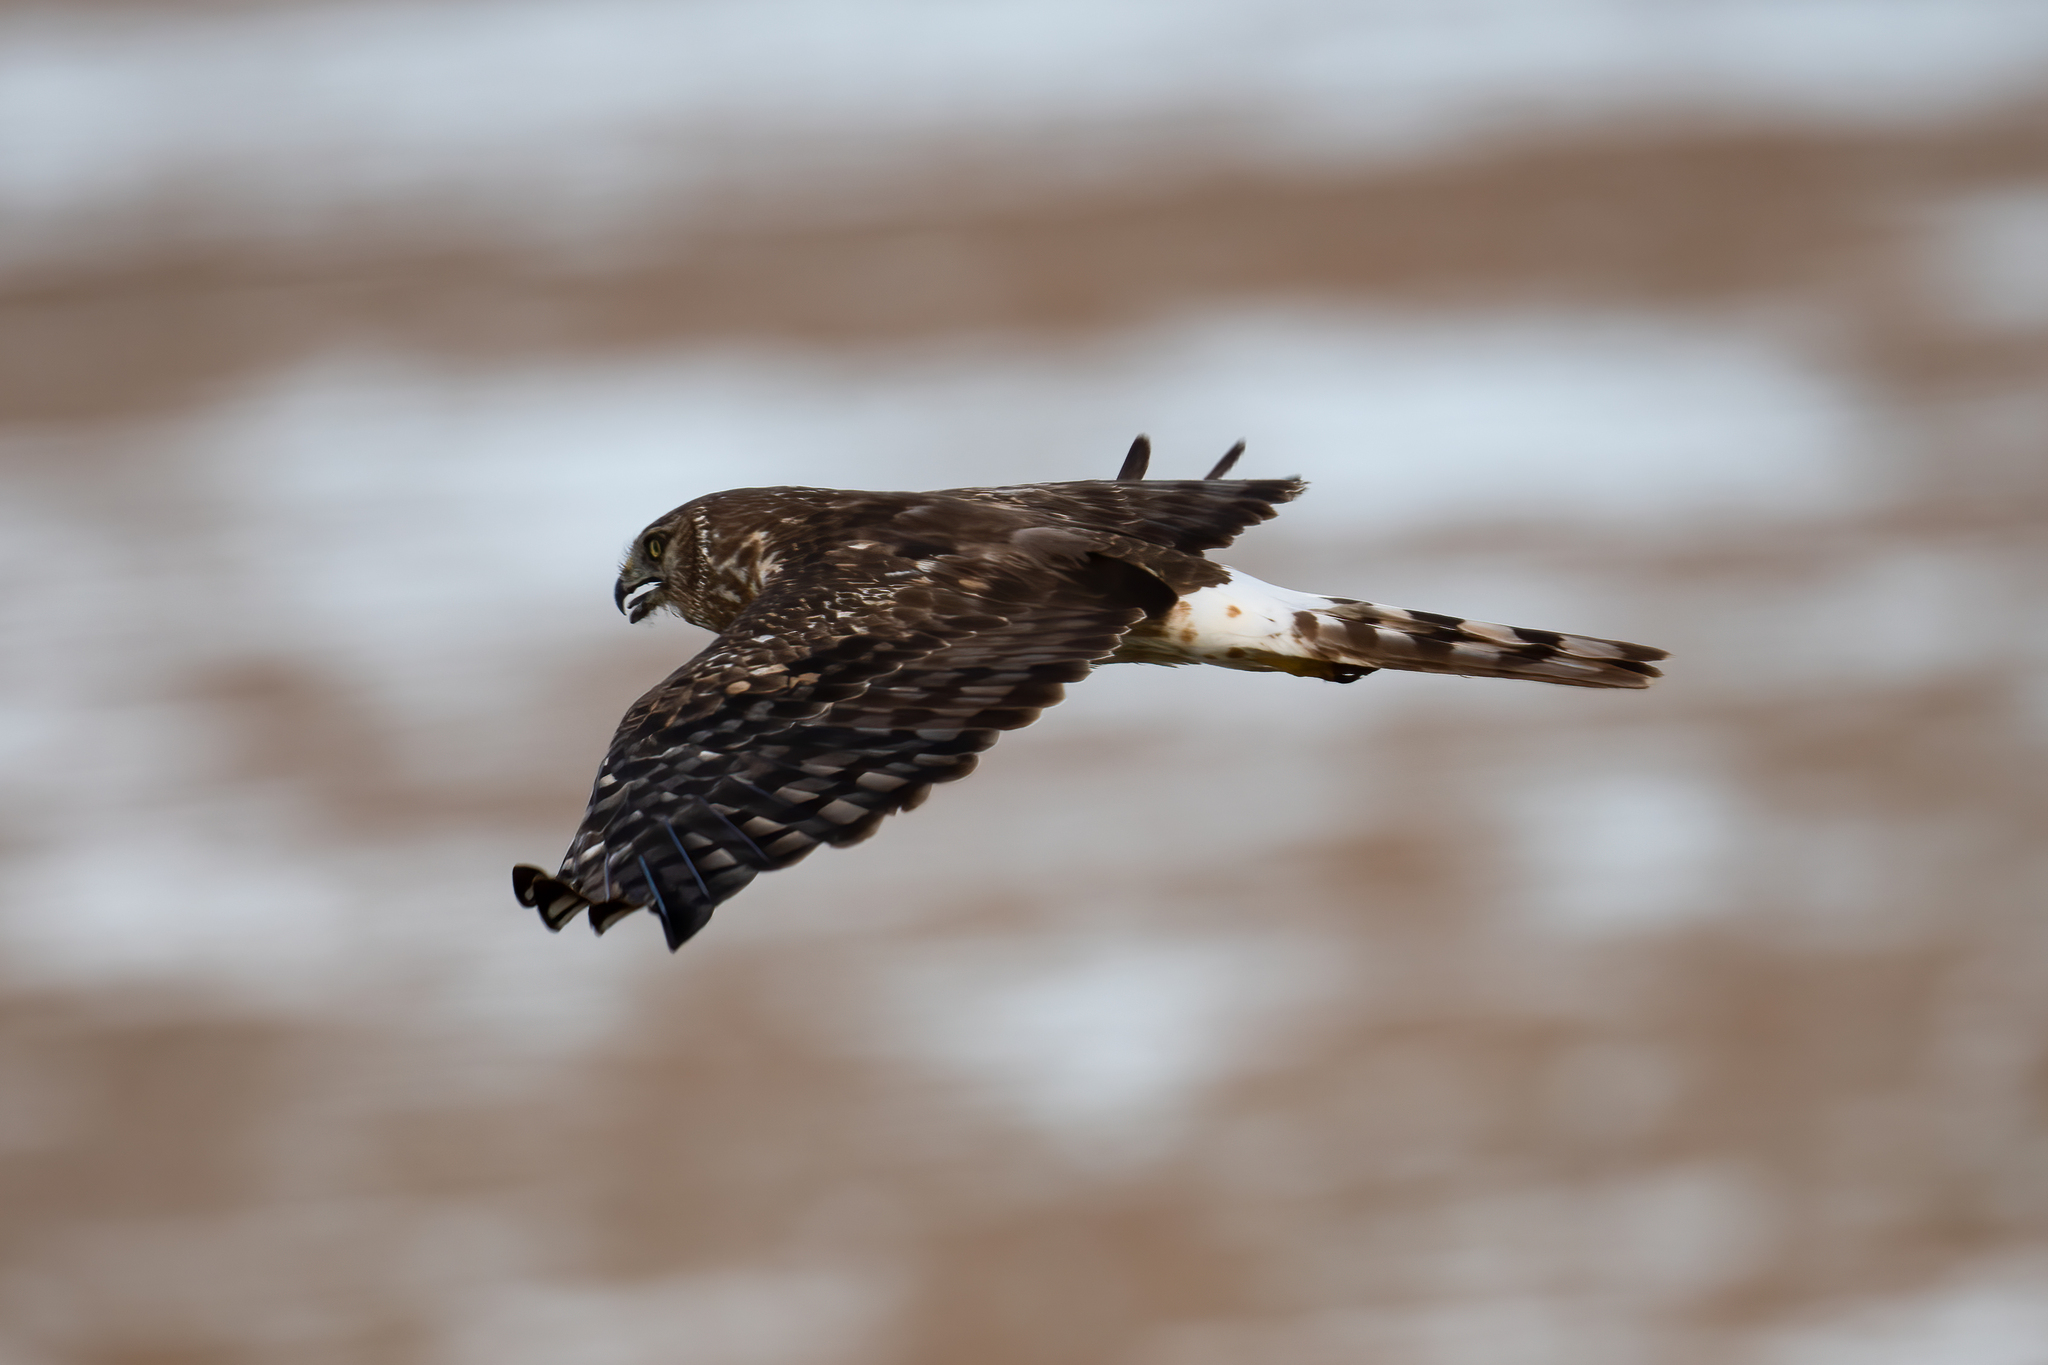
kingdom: Animalia
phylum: Chordata
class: Aves
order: Accipitriformes
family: Accipitridae
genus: Circus
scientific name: Circus cyaneus
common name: Hen harrier
